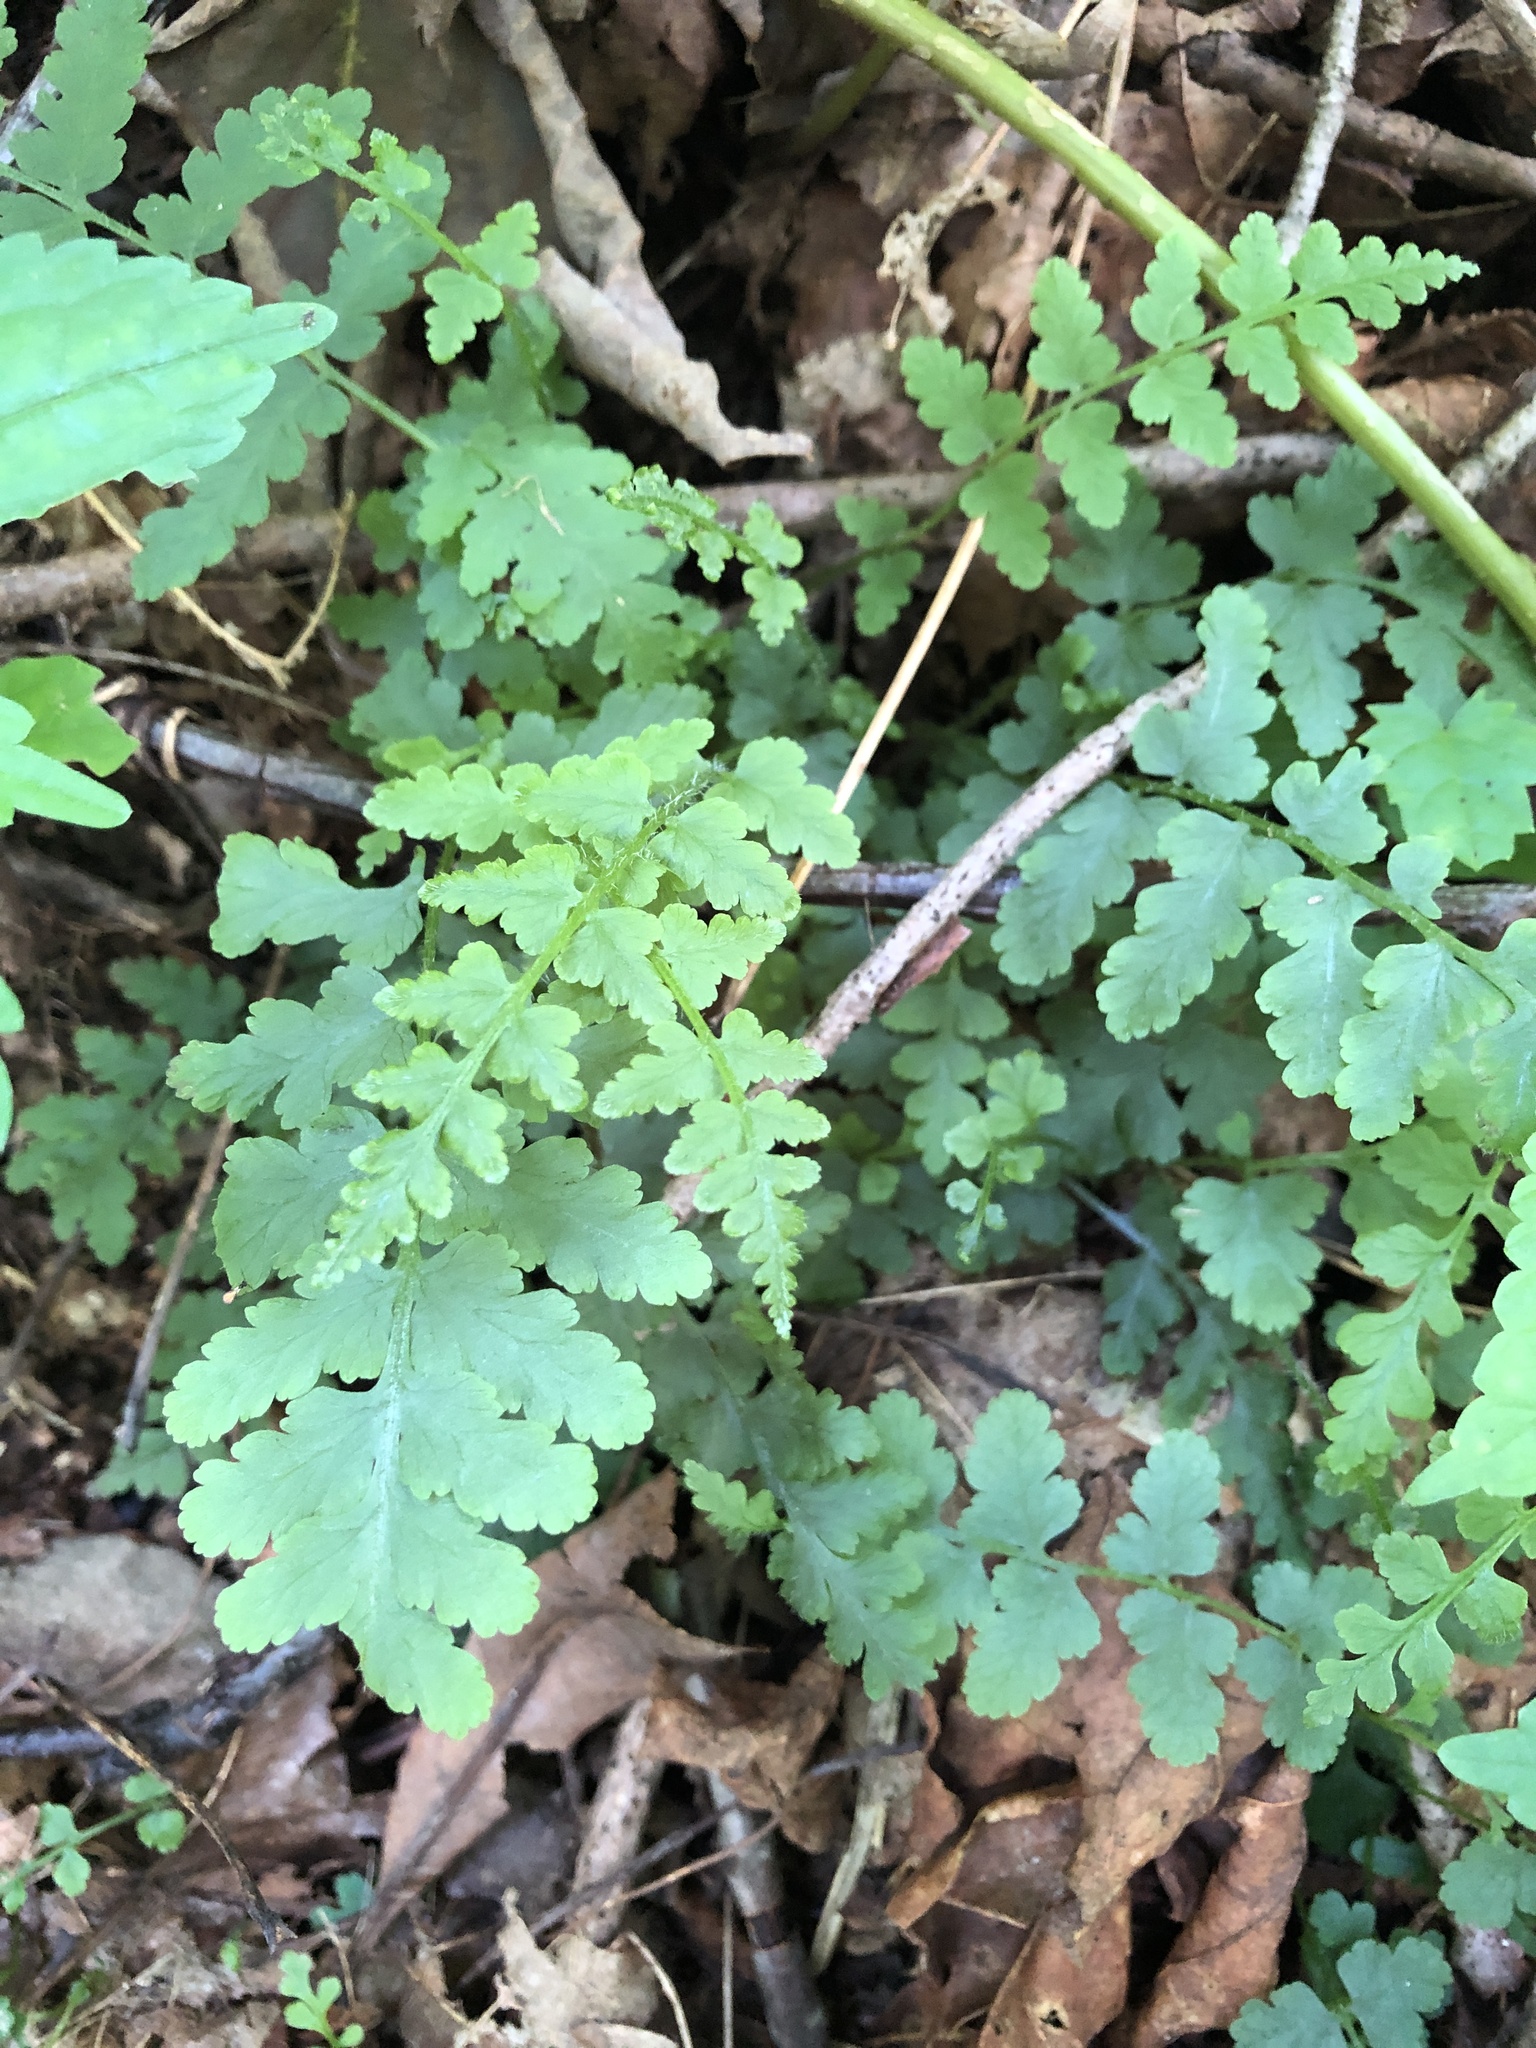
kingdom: Plantae
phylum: Tracheophyta
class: Polypodiopsida
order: Polypodiales
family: Woodsiaceae
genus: Physematium
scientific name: Physematium obtusum
